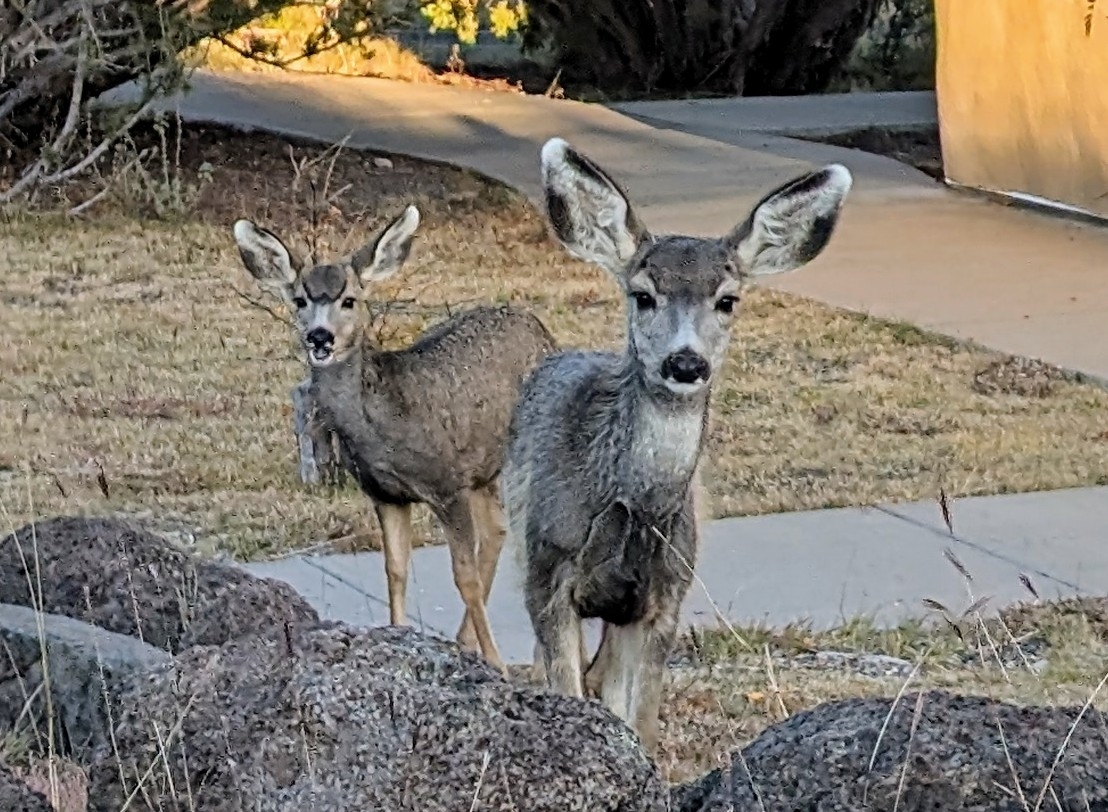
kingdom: Animalia
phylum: Chordata
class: Mammalia
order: Artiodactyla
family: Cervidae
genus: Odocoileus
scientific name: Odocoileus hemionus
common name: Mule deer
